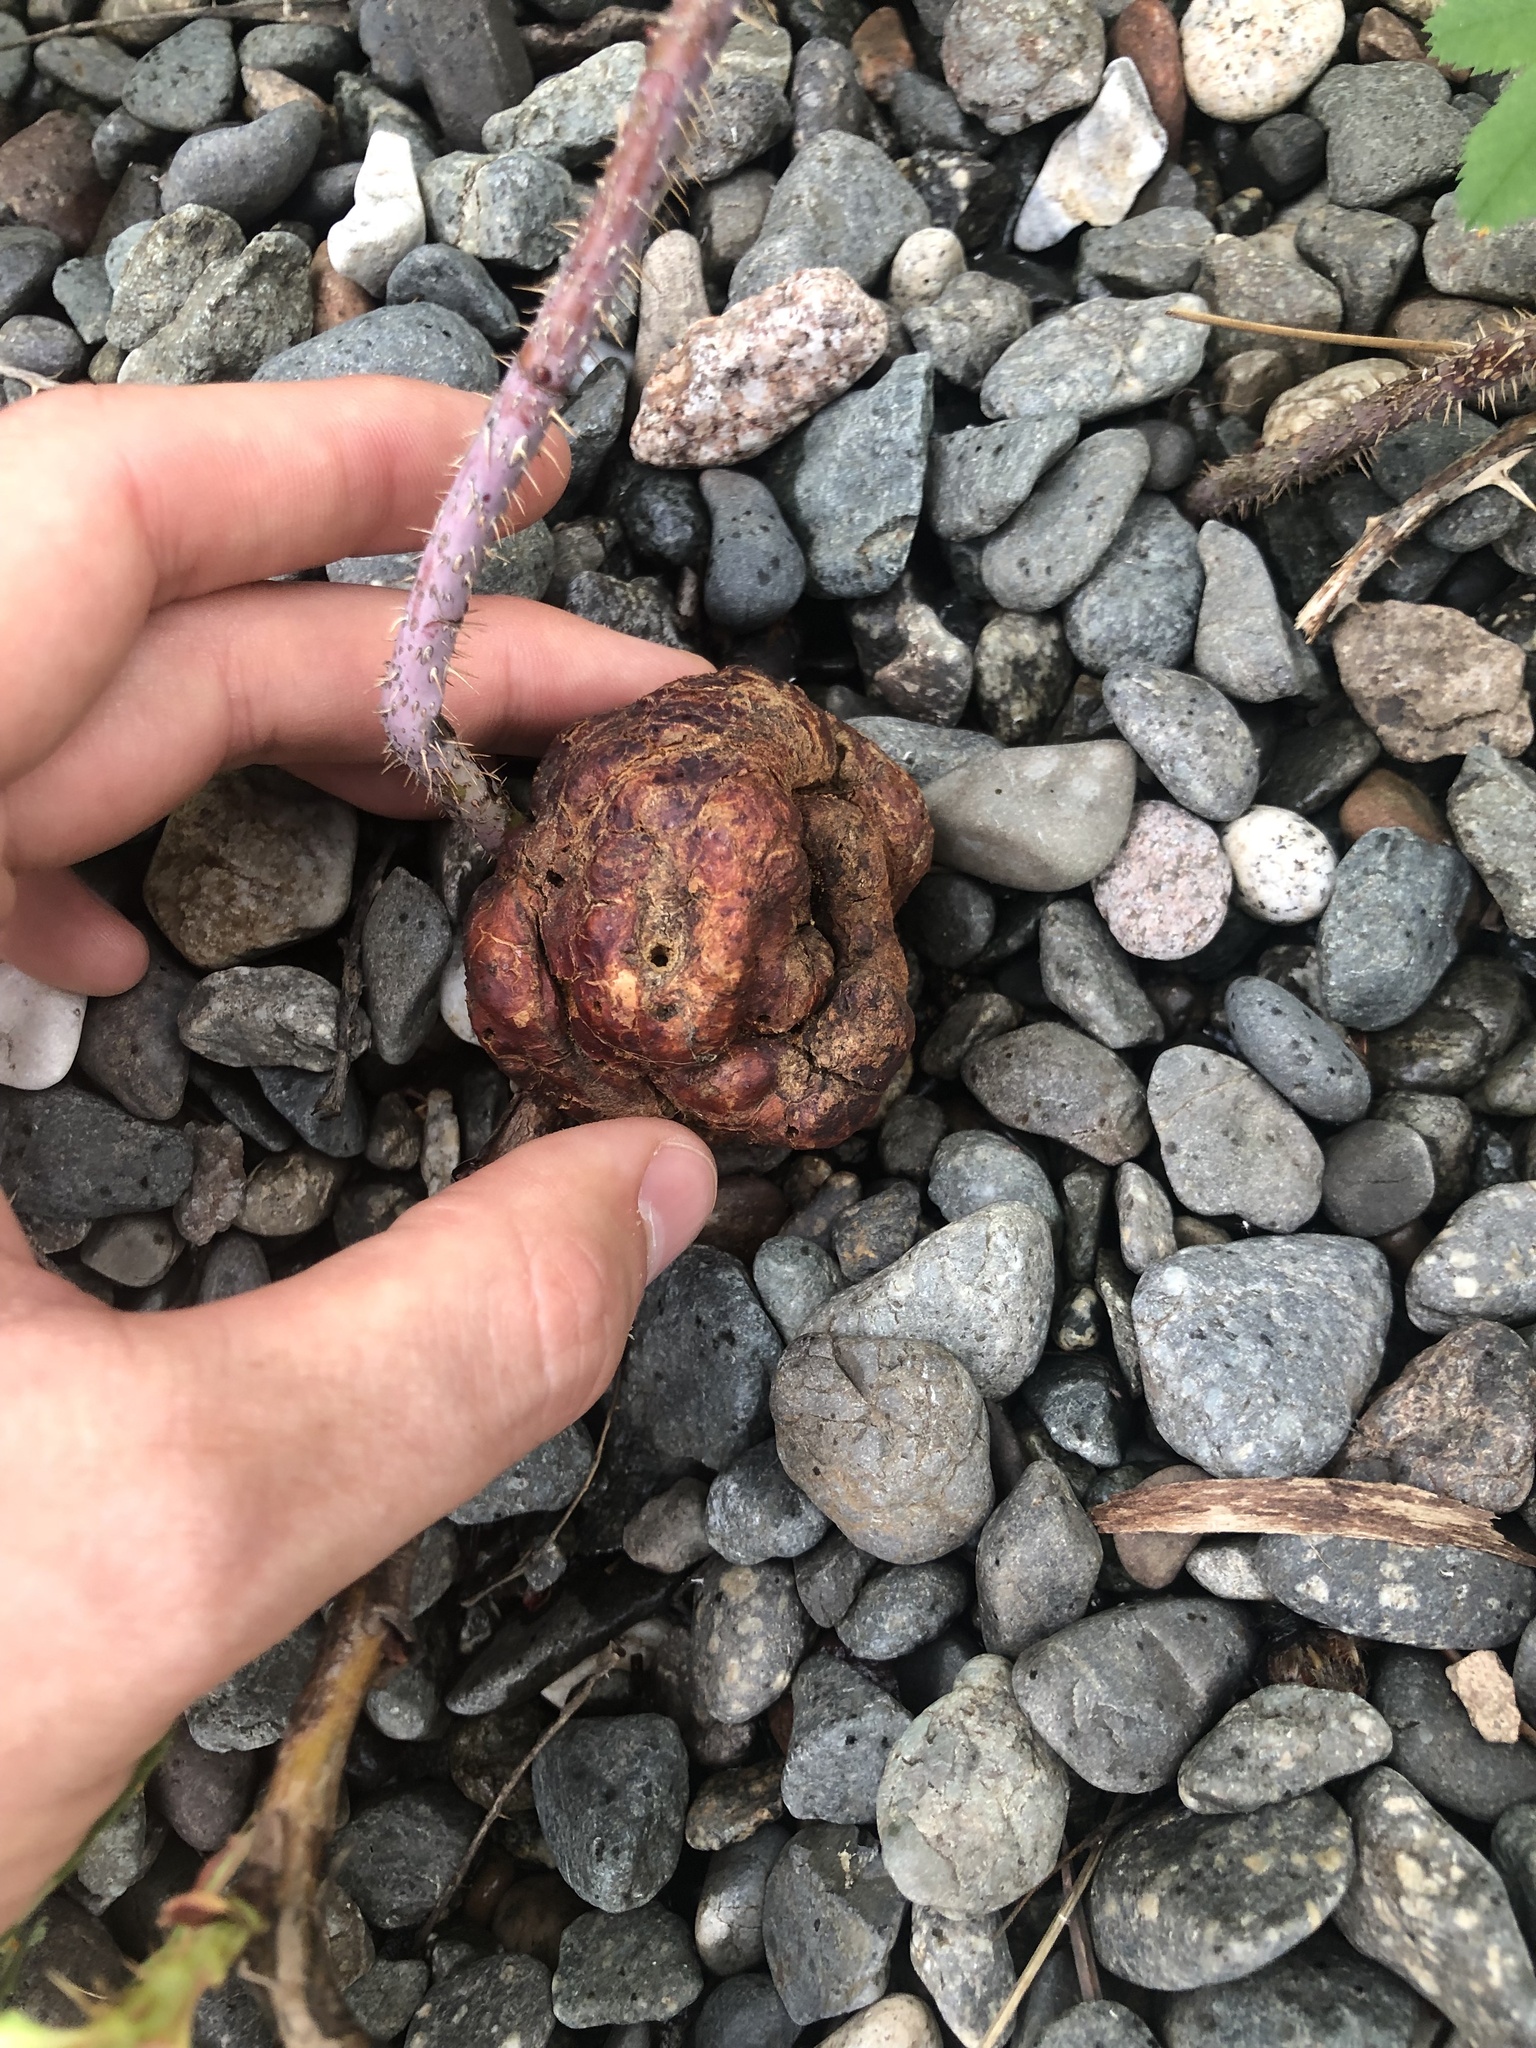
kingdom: Animalia
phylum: Arthropoda
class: Insecta
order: Hymenoptera
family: Cynipidae
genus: Diplolepis
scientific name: Diplolepis radicum
